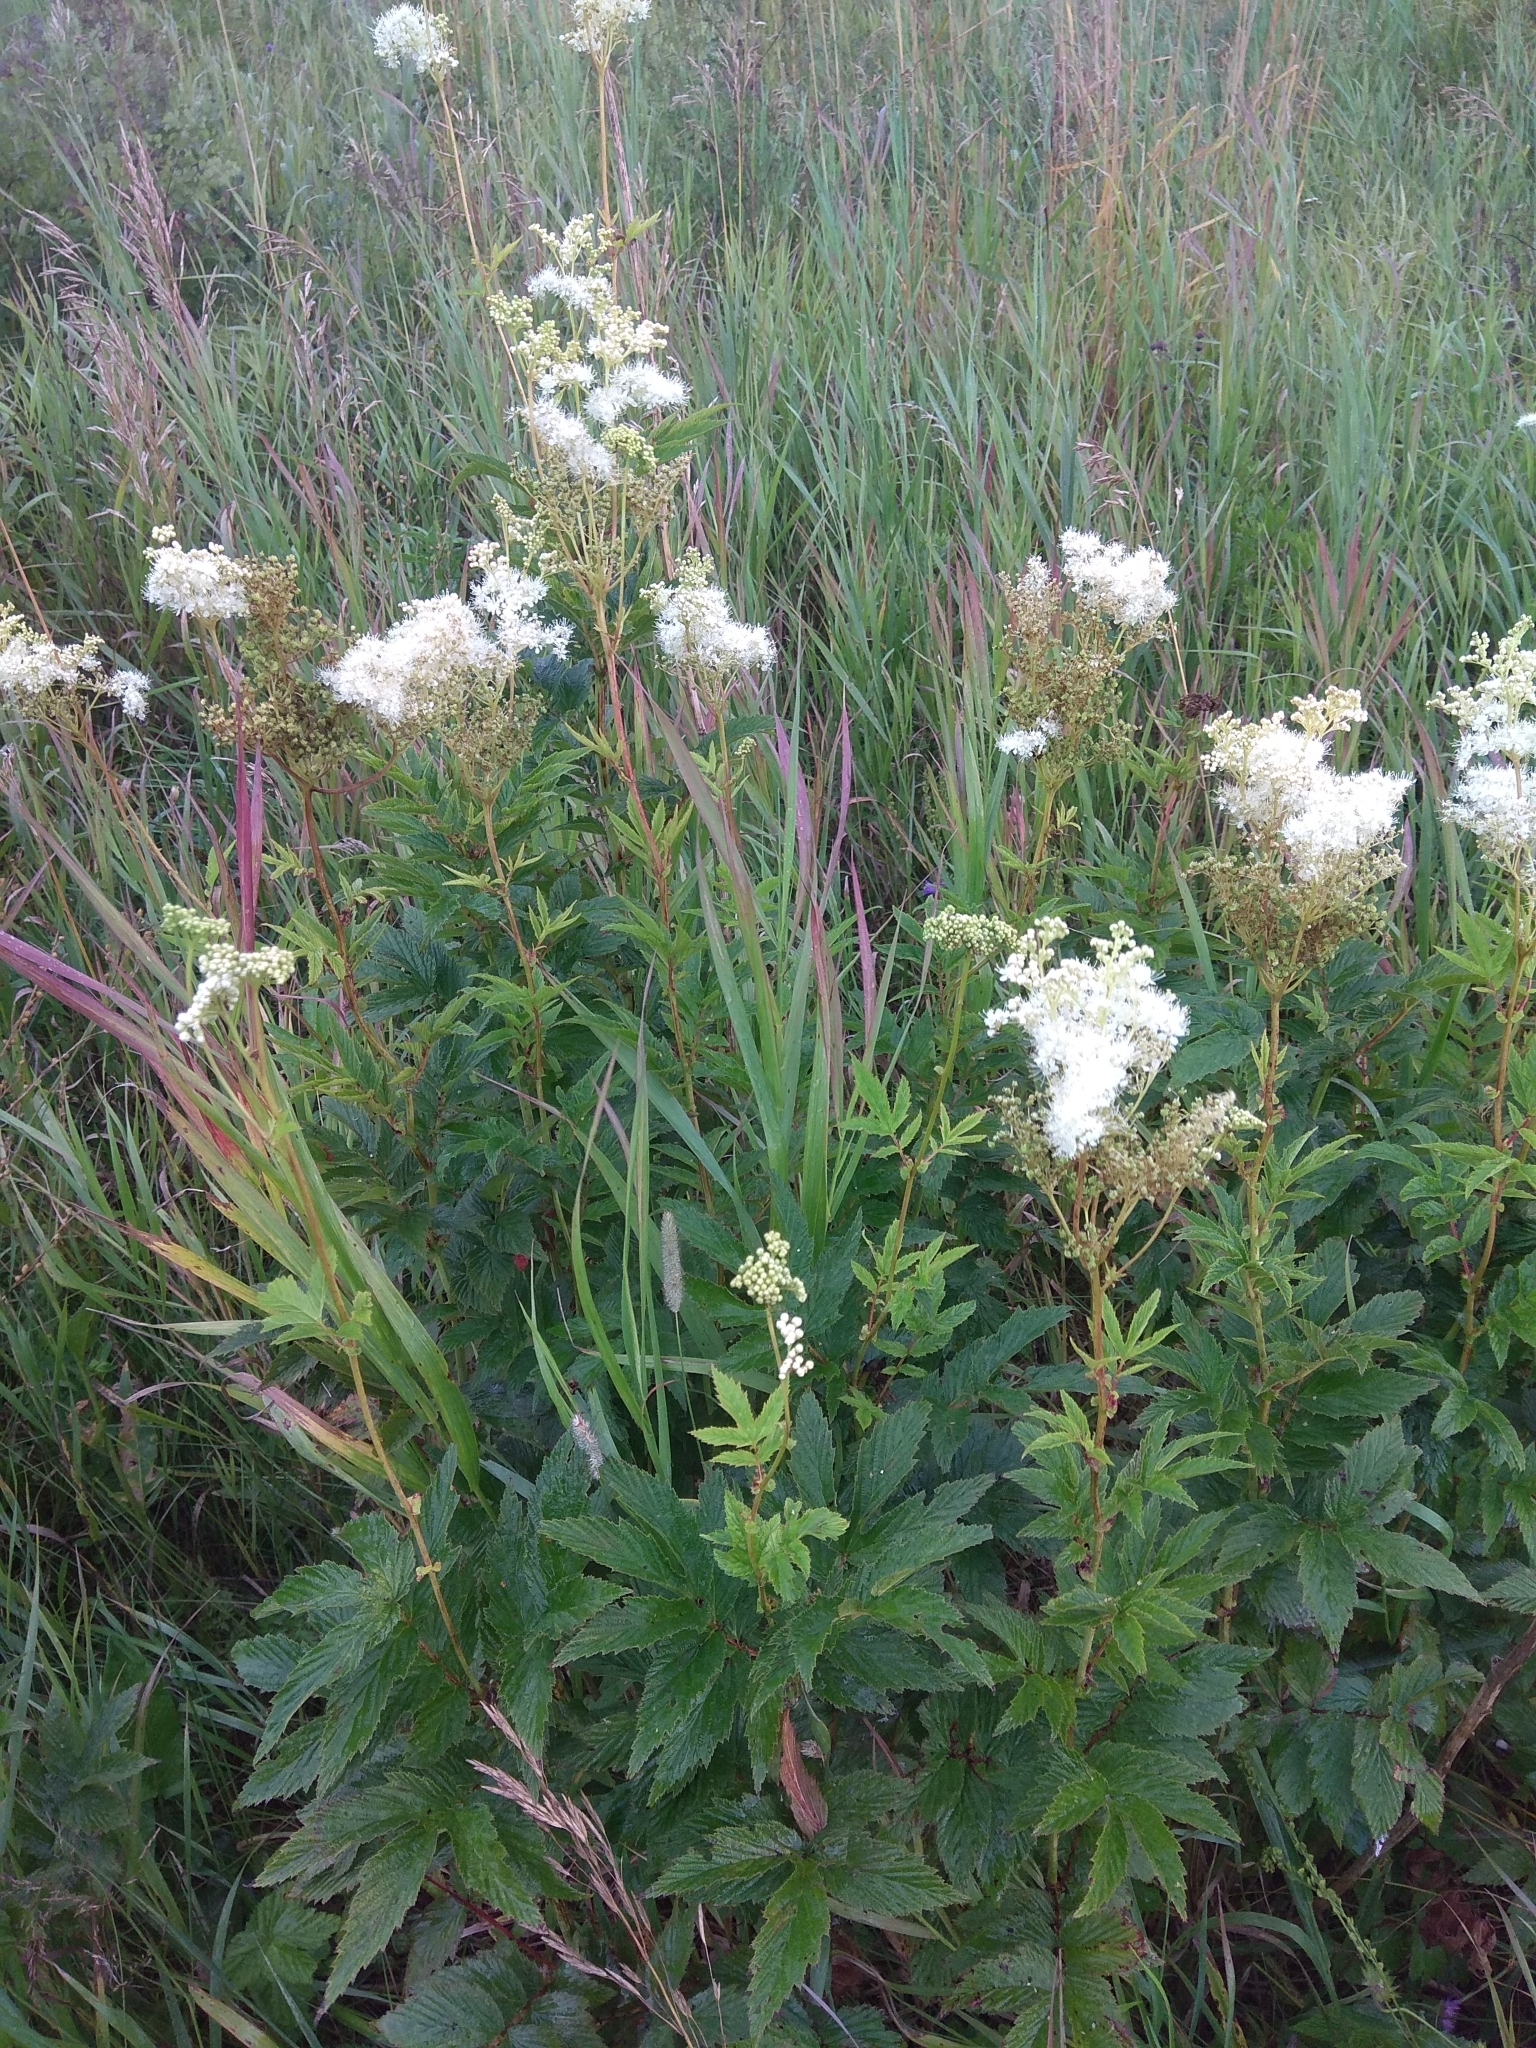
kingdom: Plantae
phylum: Tracheophyta
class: Magnoliopsida
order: Rosales
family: Rosaceae
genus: Filipendula
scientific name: Filipendula ulmaria
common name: Meadowsweet
